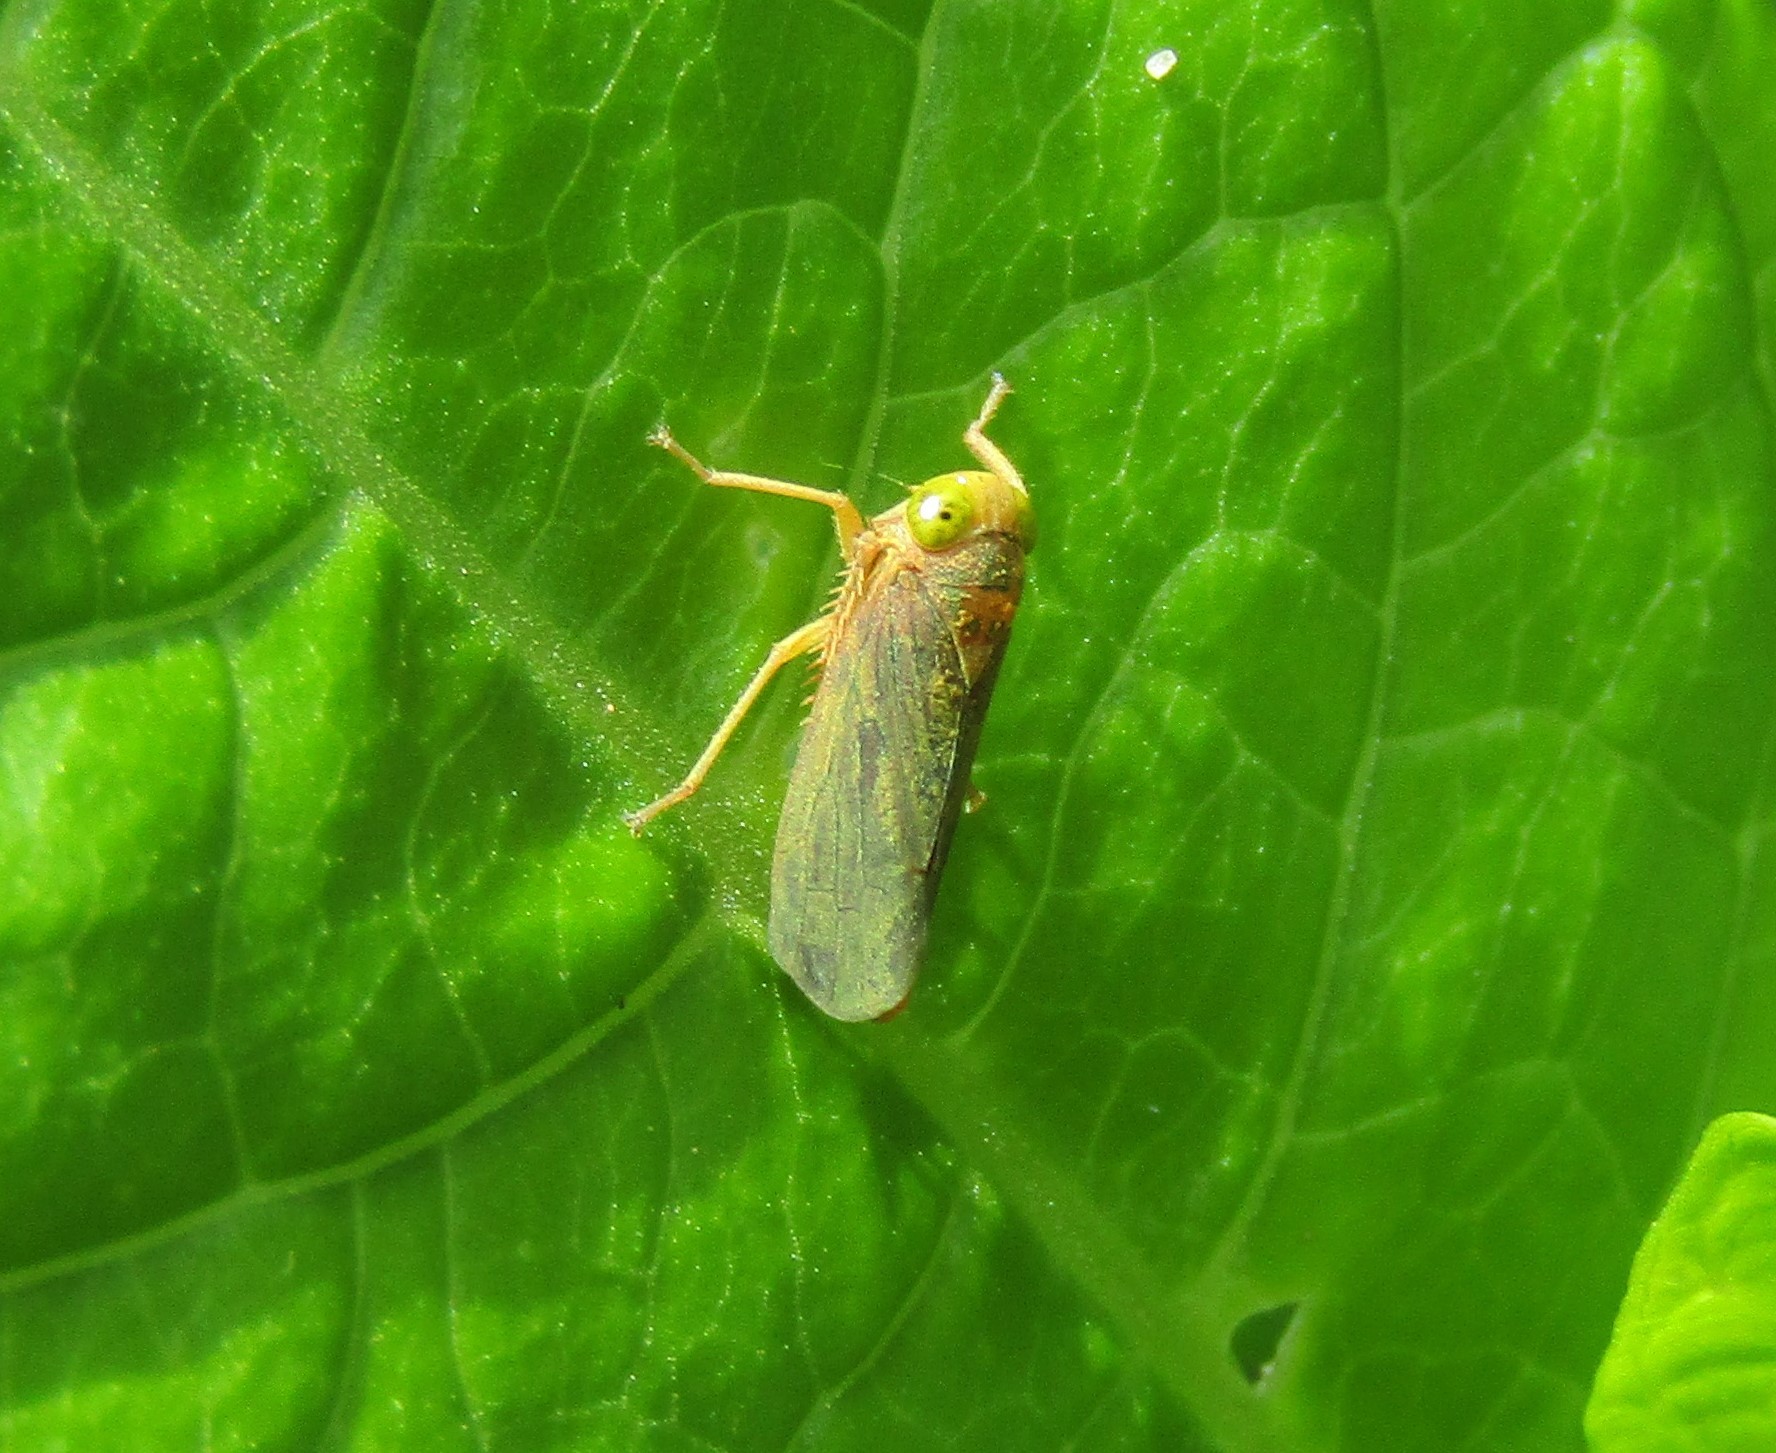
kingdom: Animalia
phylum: Arthropoda
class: Insecta
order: Hemiptera
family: Cicadellidae
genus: Jikradia
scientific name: Jikradia olitoria
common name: Coppery leafhopper
